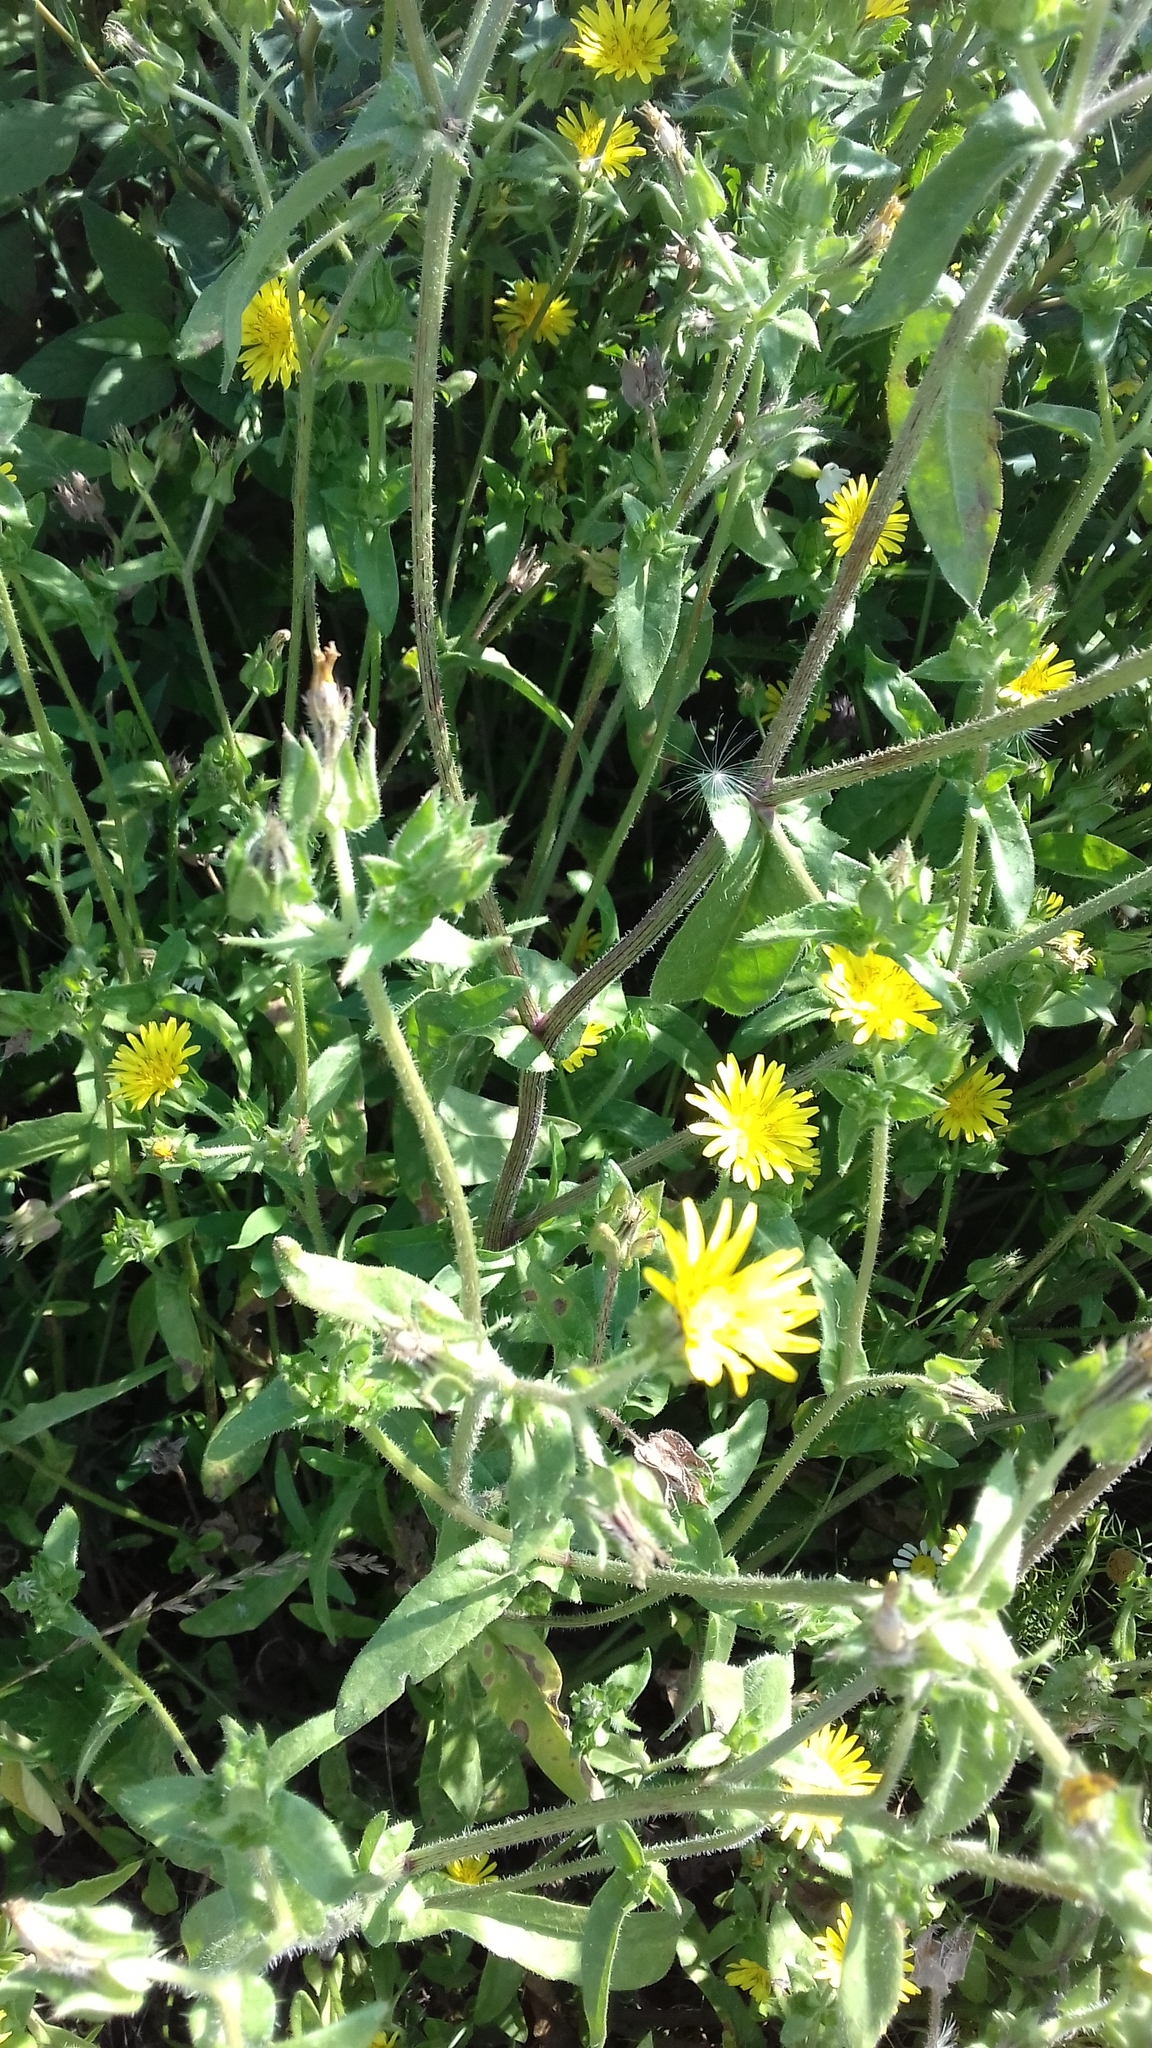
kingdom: Plantae
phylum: Tracheophyta
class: Magnoliopsida
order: Asterales
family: Asteraceae
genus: Helminthotheca
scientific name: Helminthotheca echioides
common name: Ox-tongue
